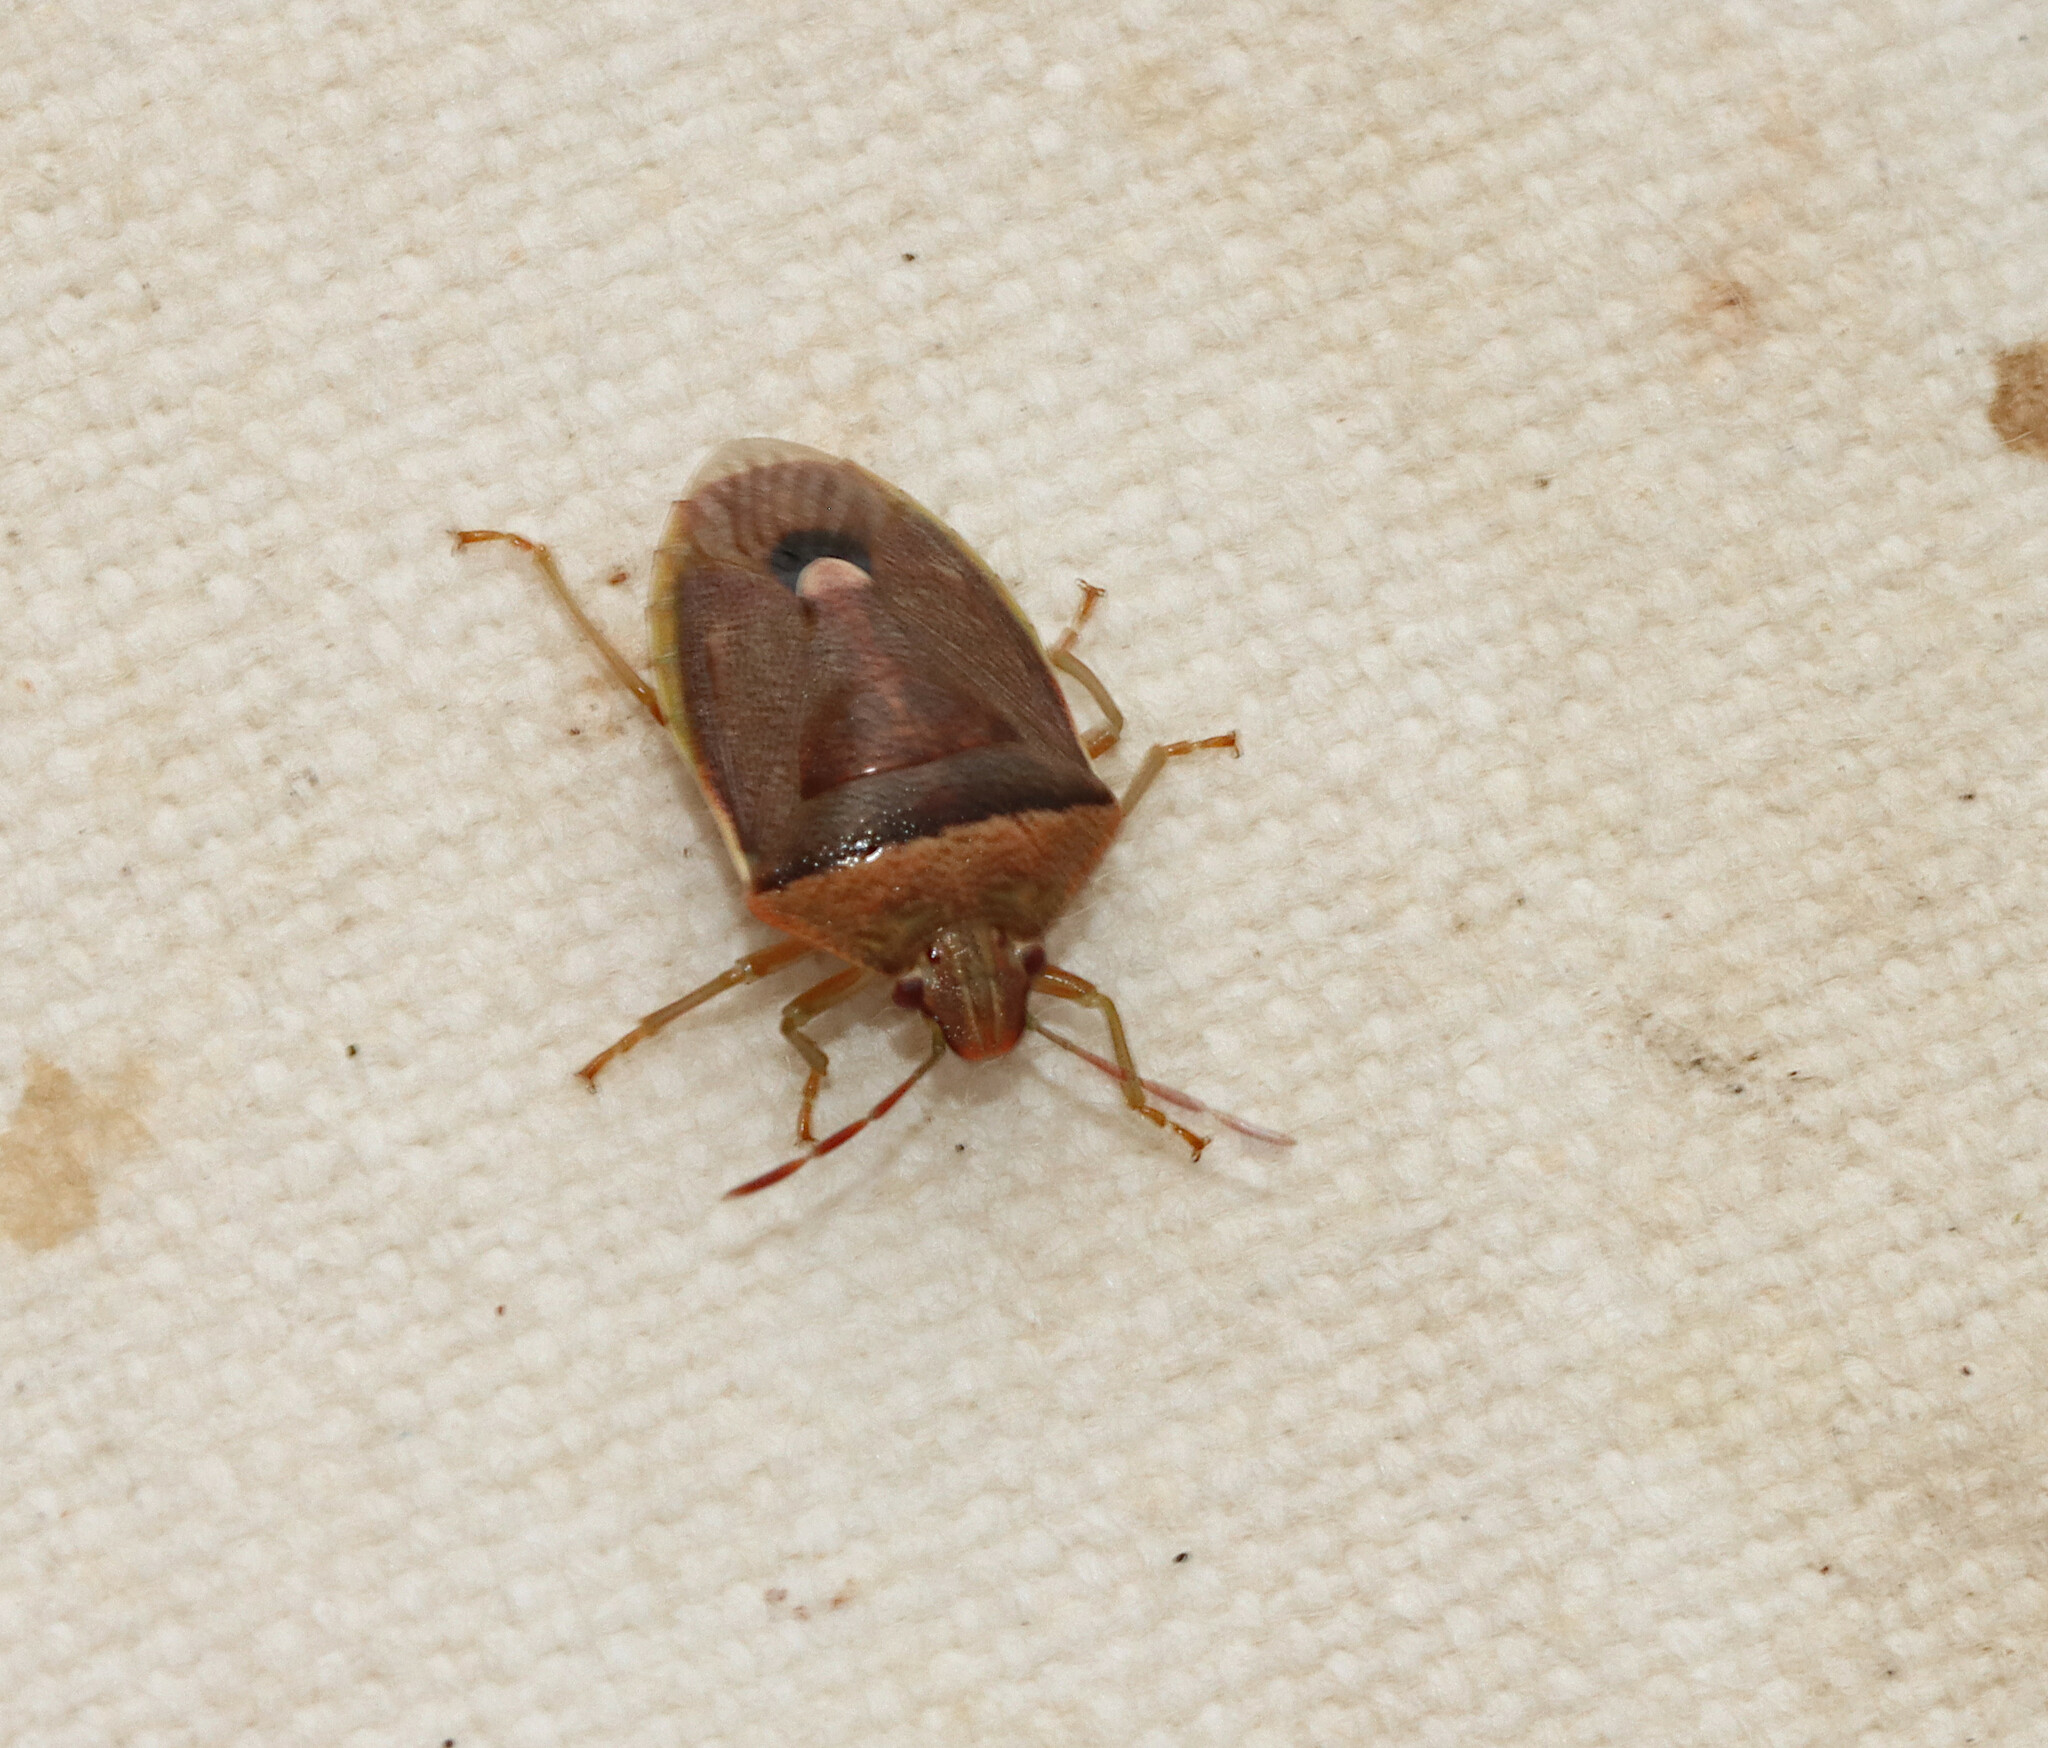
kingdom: Animalia
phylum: Arthropoda
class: Insecta
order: Hemiptera
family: Pentatomidae
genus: Banasa
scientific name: Banasa calva
